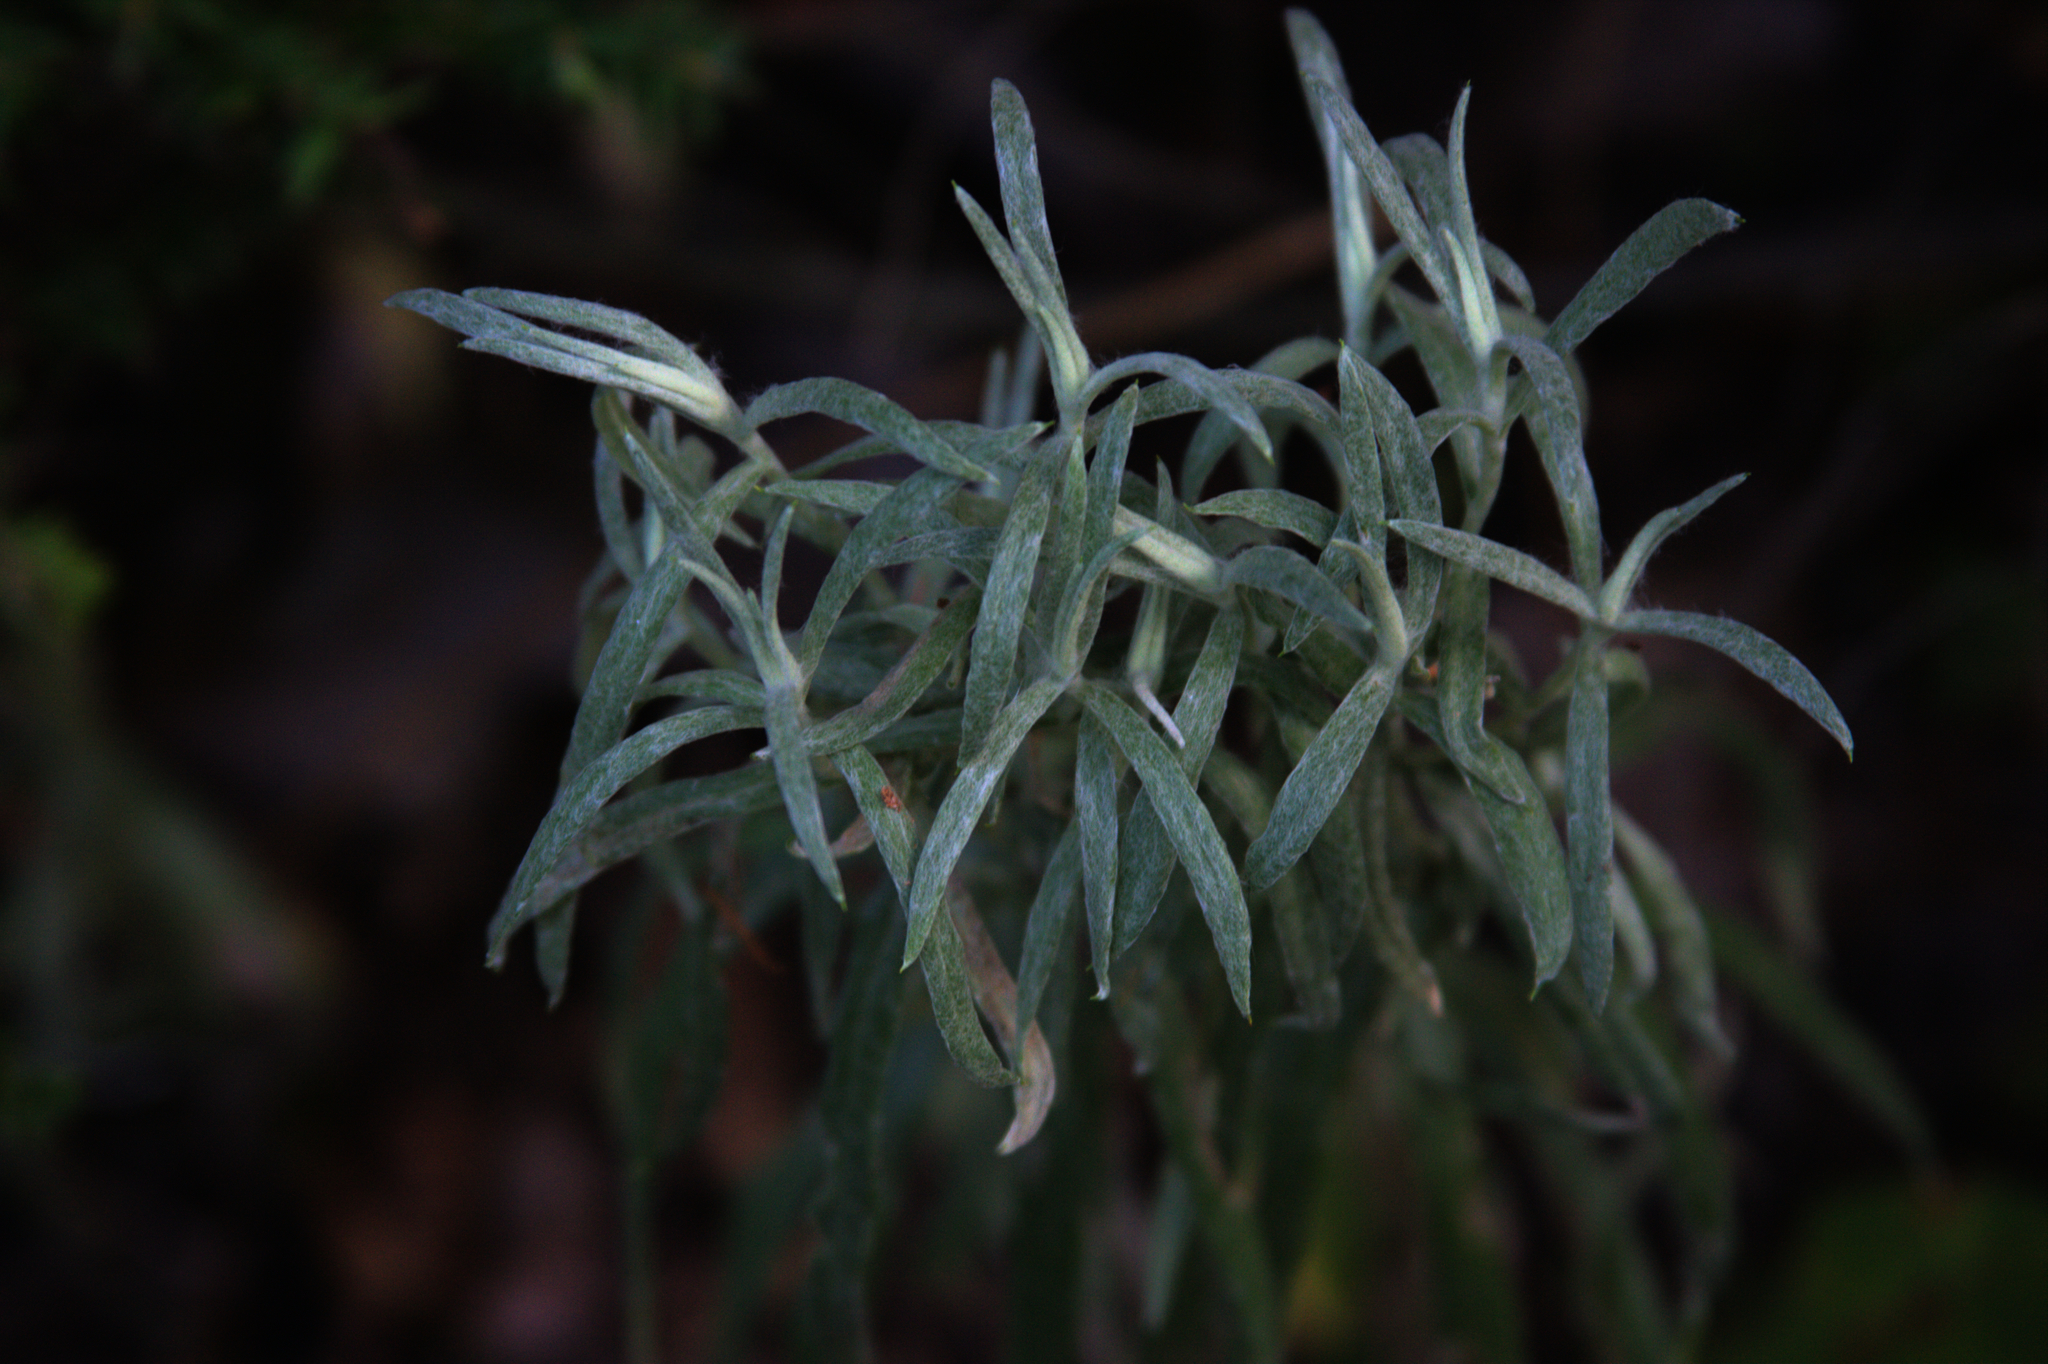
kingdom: Plantae
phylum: Tracheophyta
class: Magnoliopsida
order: Asterales
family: Asteraceae
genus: Anaphalis
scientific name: Anaphalis margaritacea
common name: Pearly everlasting
